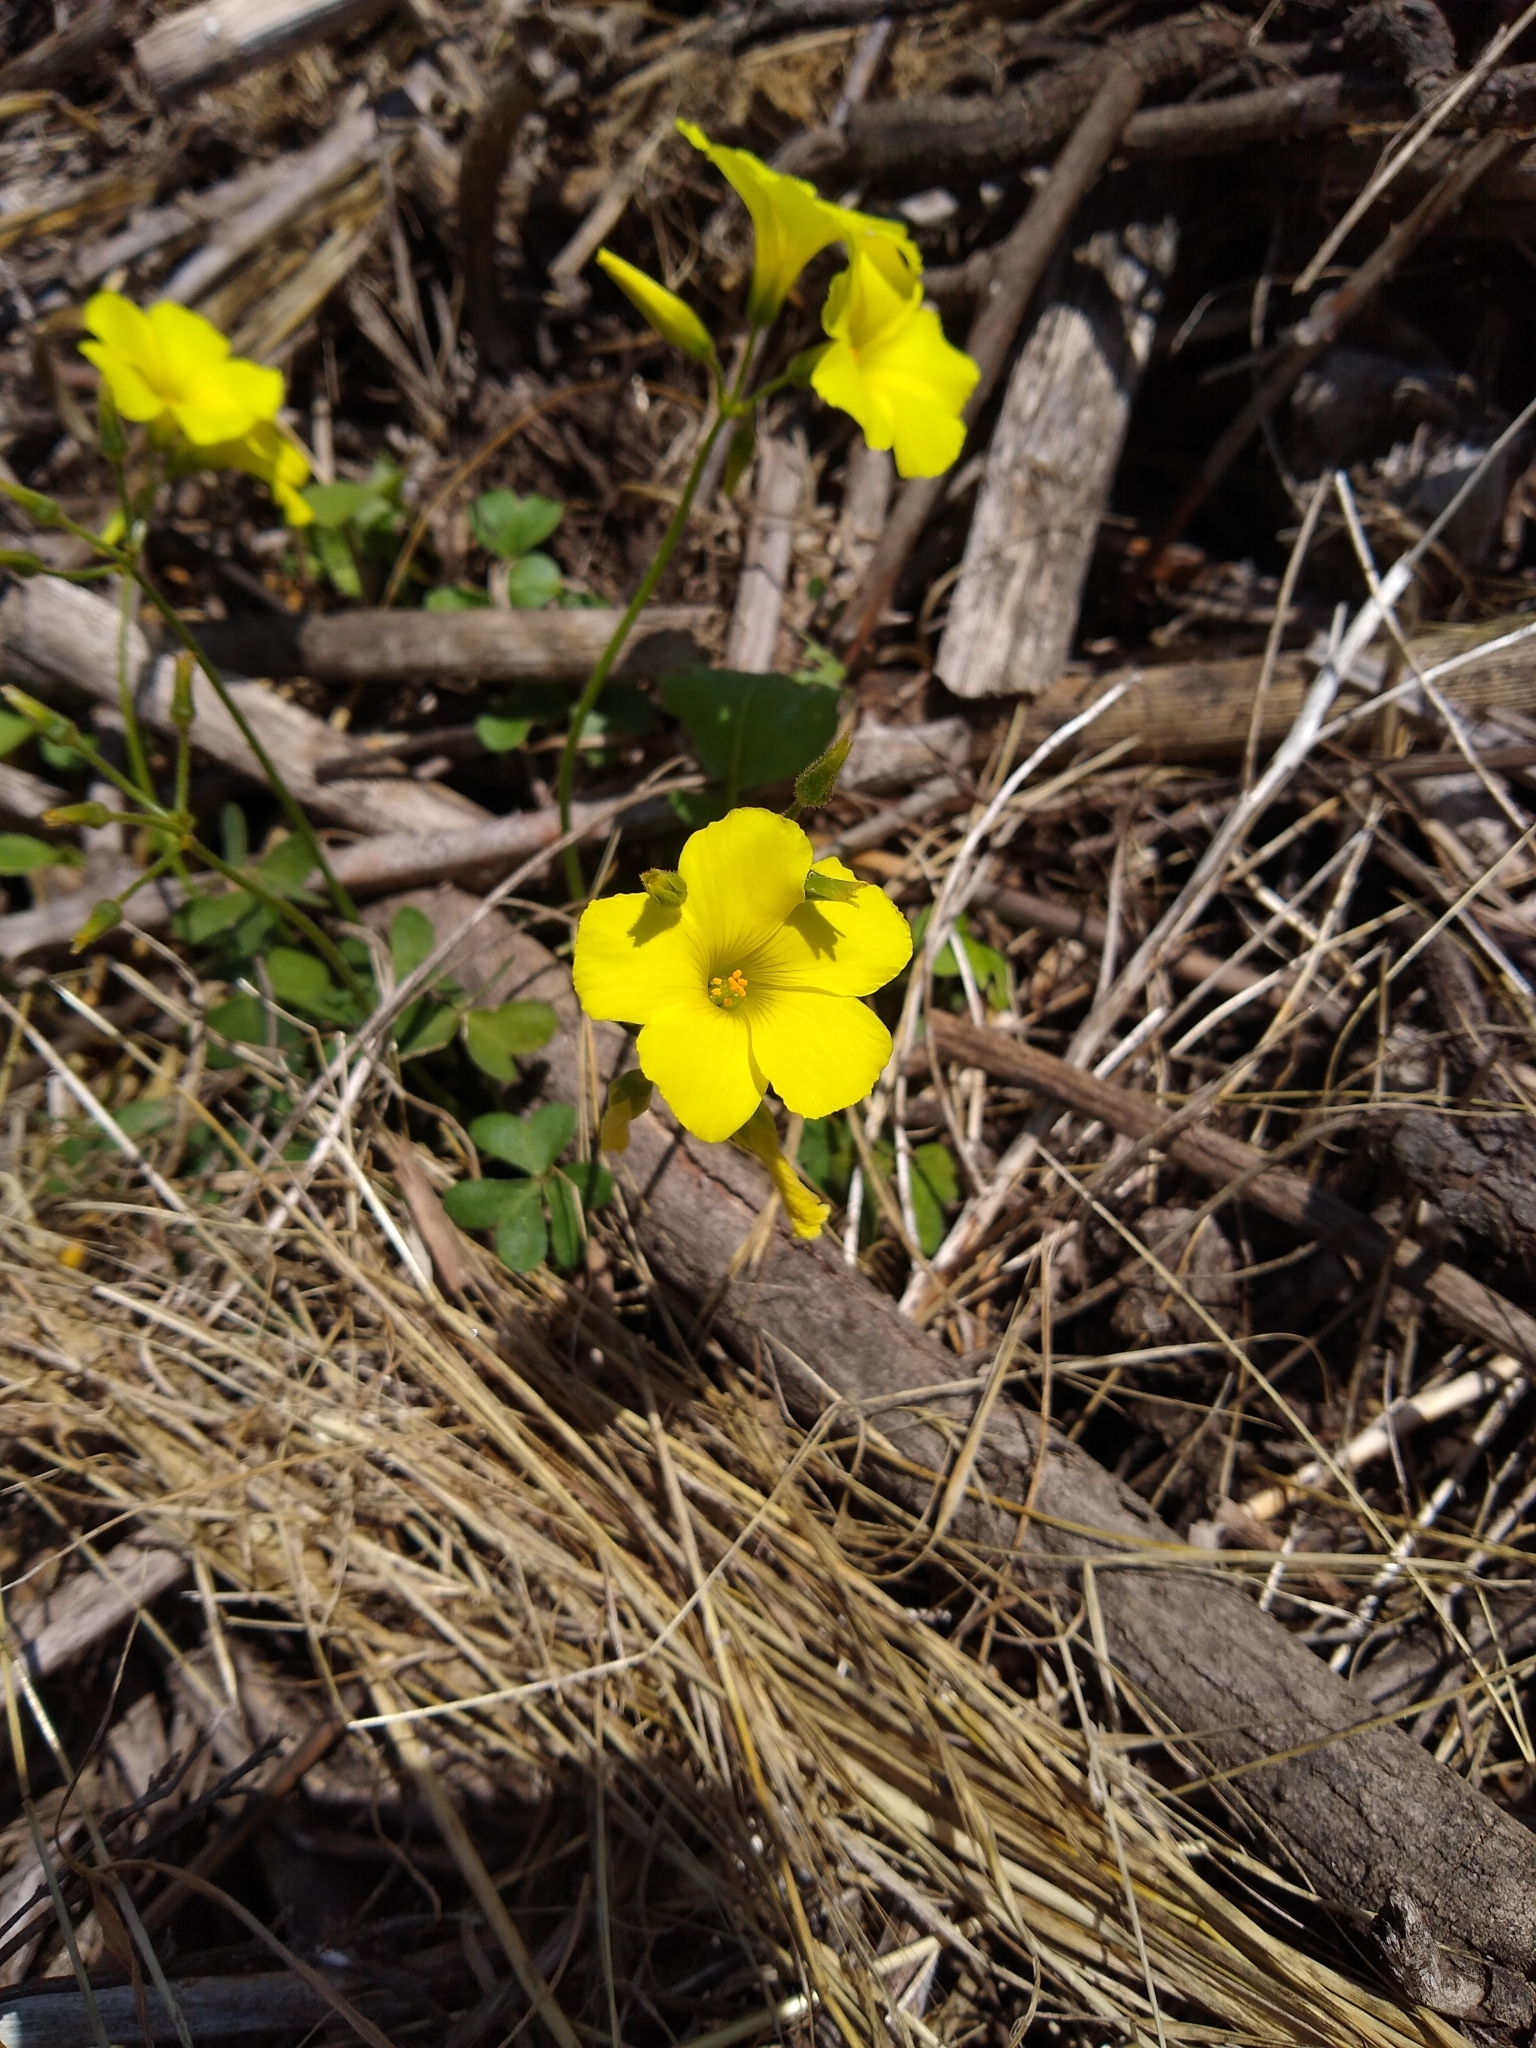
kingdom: Plantae
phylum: Tracheophyta
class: Magnoliopsida
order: Oxalidales
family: Oxalidaceae
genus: Oxalis
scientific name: Oxalis pes-caprae
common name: Bermuda-buttercup
